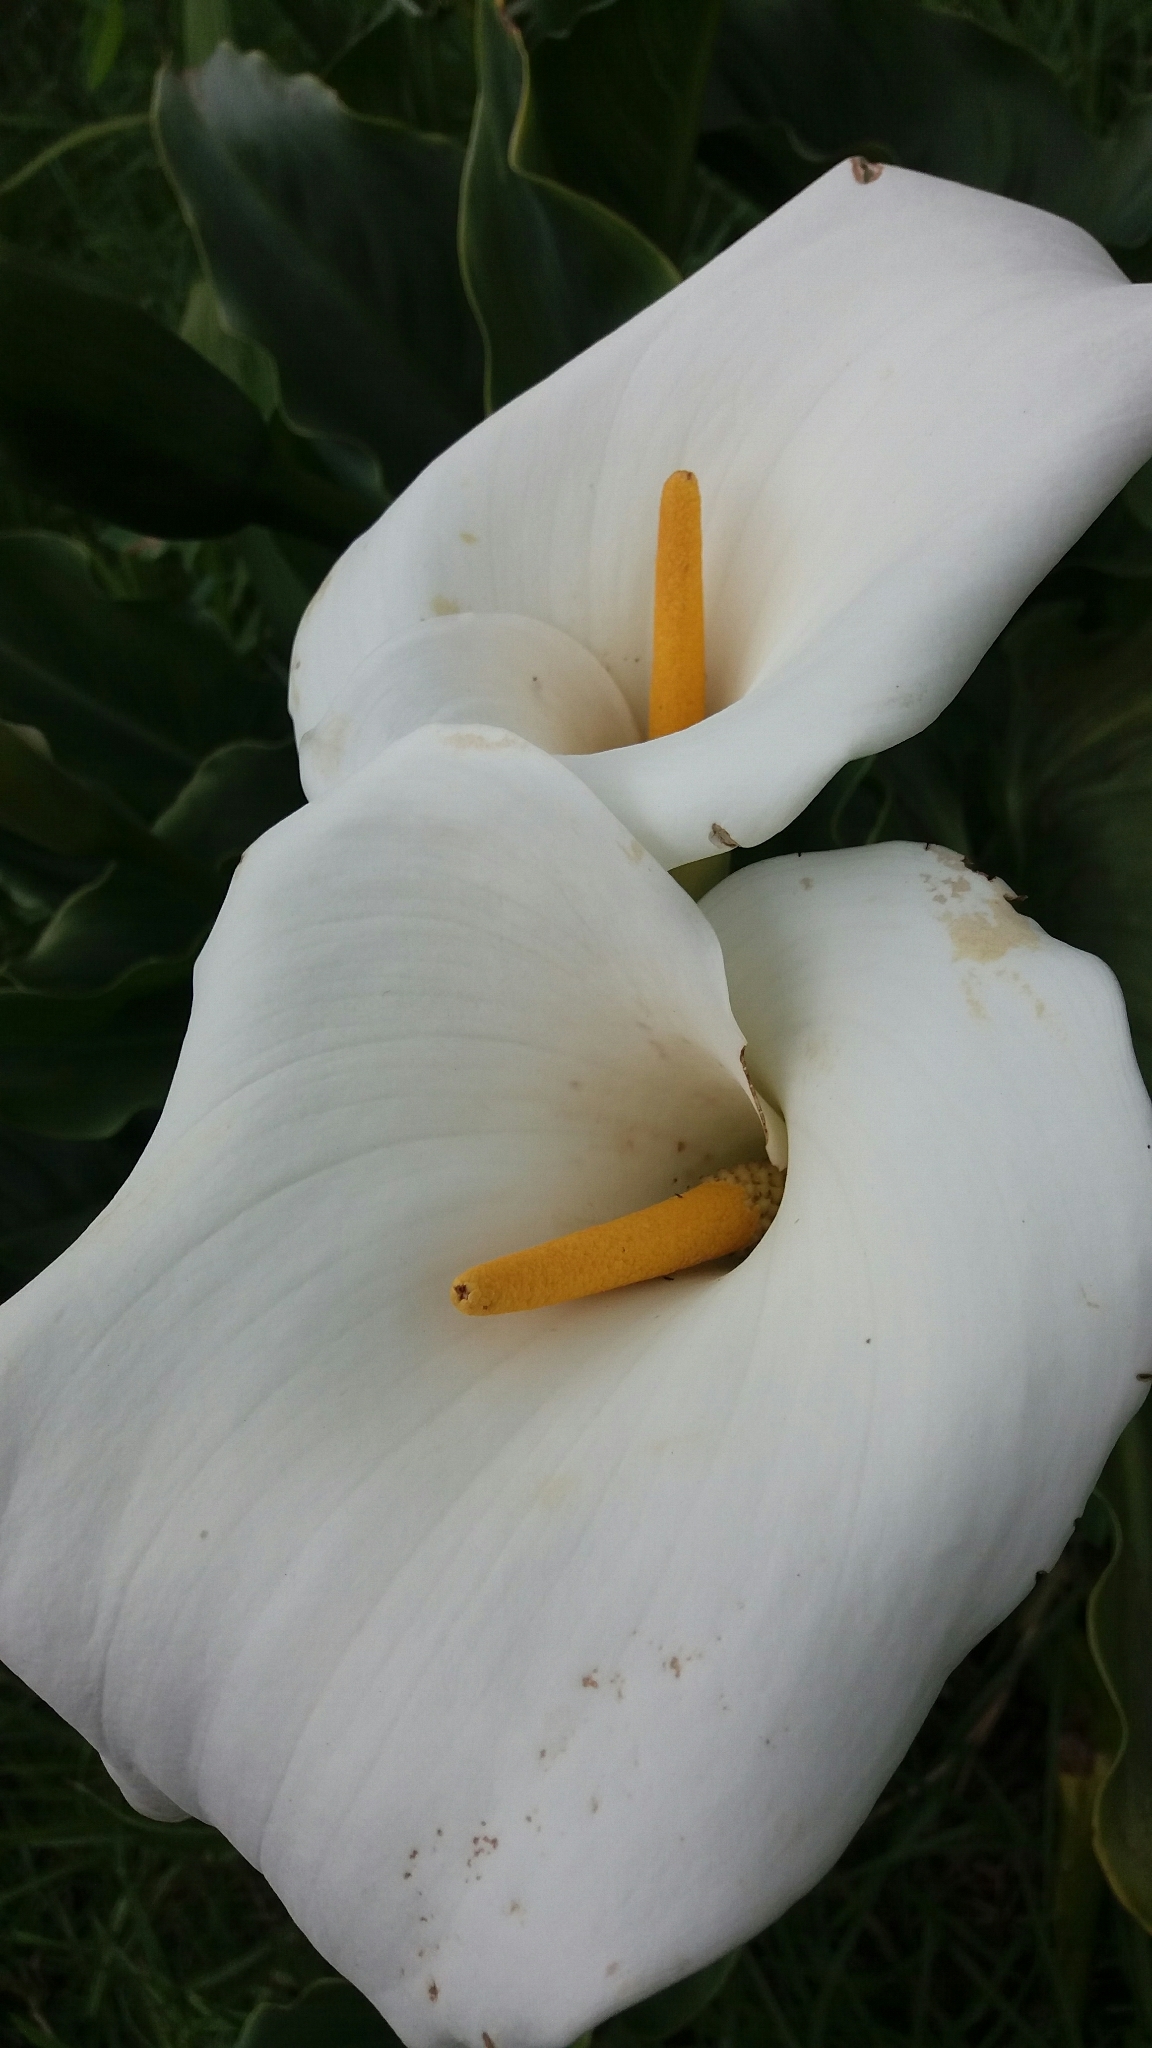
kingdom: Plantae
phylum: Tracheophyta
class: Liliopsida
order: Alismatales
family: Araceae
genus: Zantedeschia
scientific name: Zantedeschia aethiopica
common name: Altar-lily
